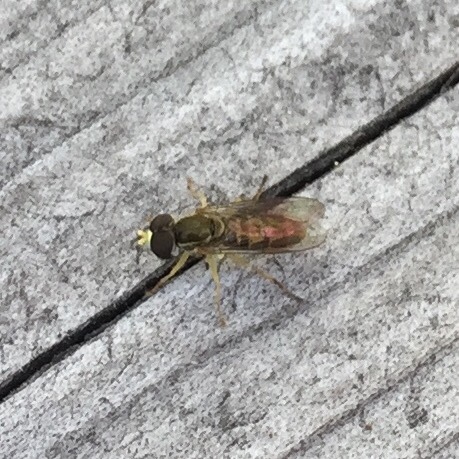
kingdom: Animalia
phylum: Arthropoda
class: Insecta
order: Diptera
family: Syrphidae
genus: Toxomerus
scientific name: Toxomerus marginatus
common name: Syrphid fly
